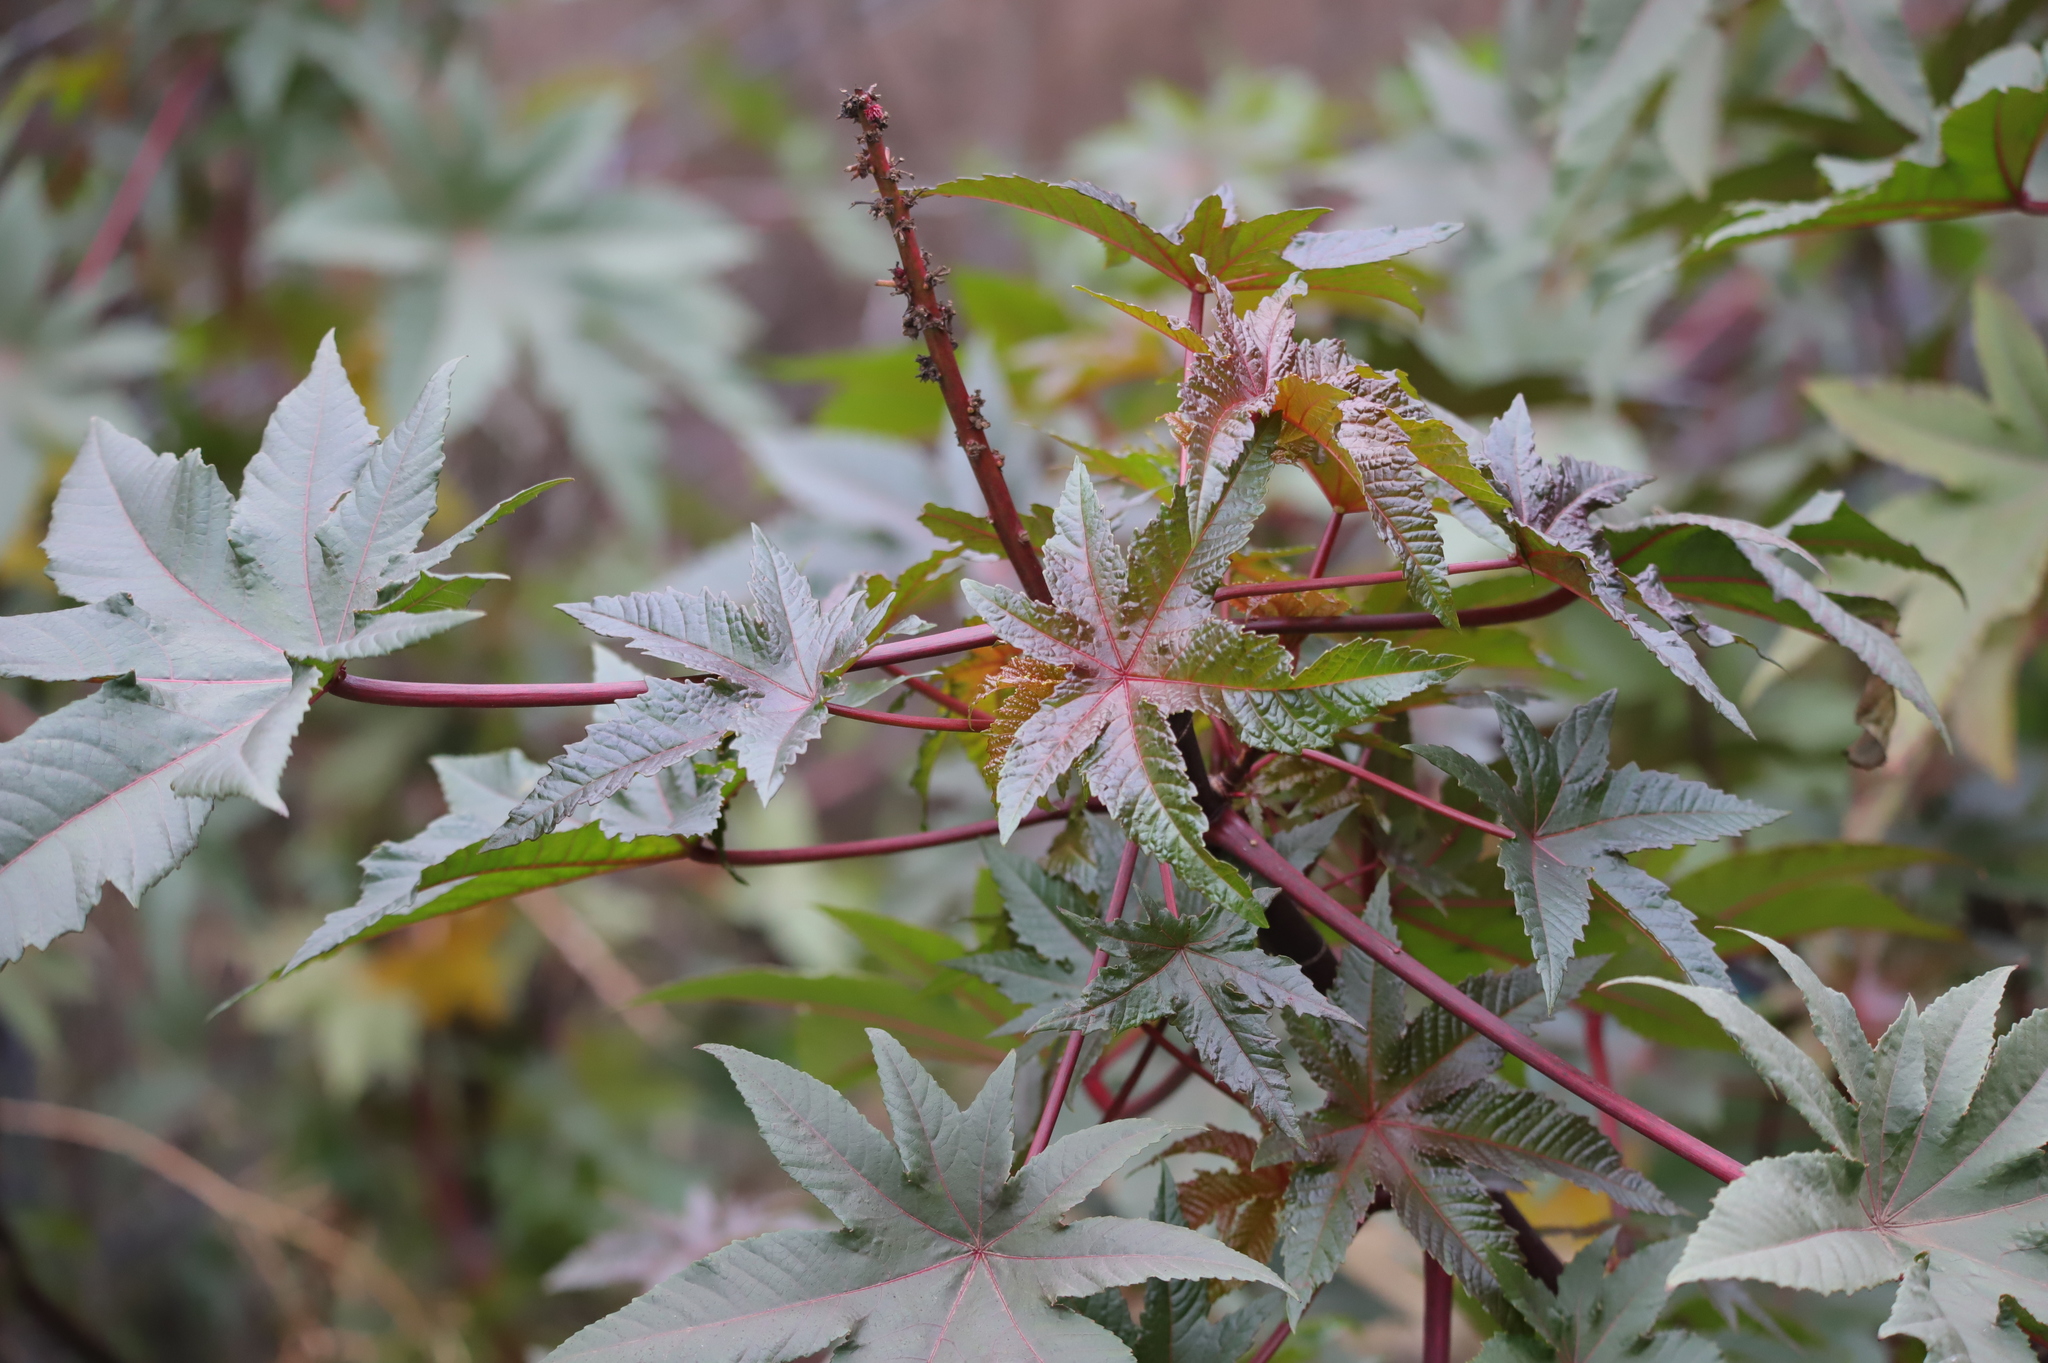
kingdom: Plantae
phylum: Tracheophyta
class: Magnoliopsida
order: Malpighiales
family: Euphorbiaceae
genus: Ricinus
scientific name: Ricinus communis
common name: Castor-oil-plant
